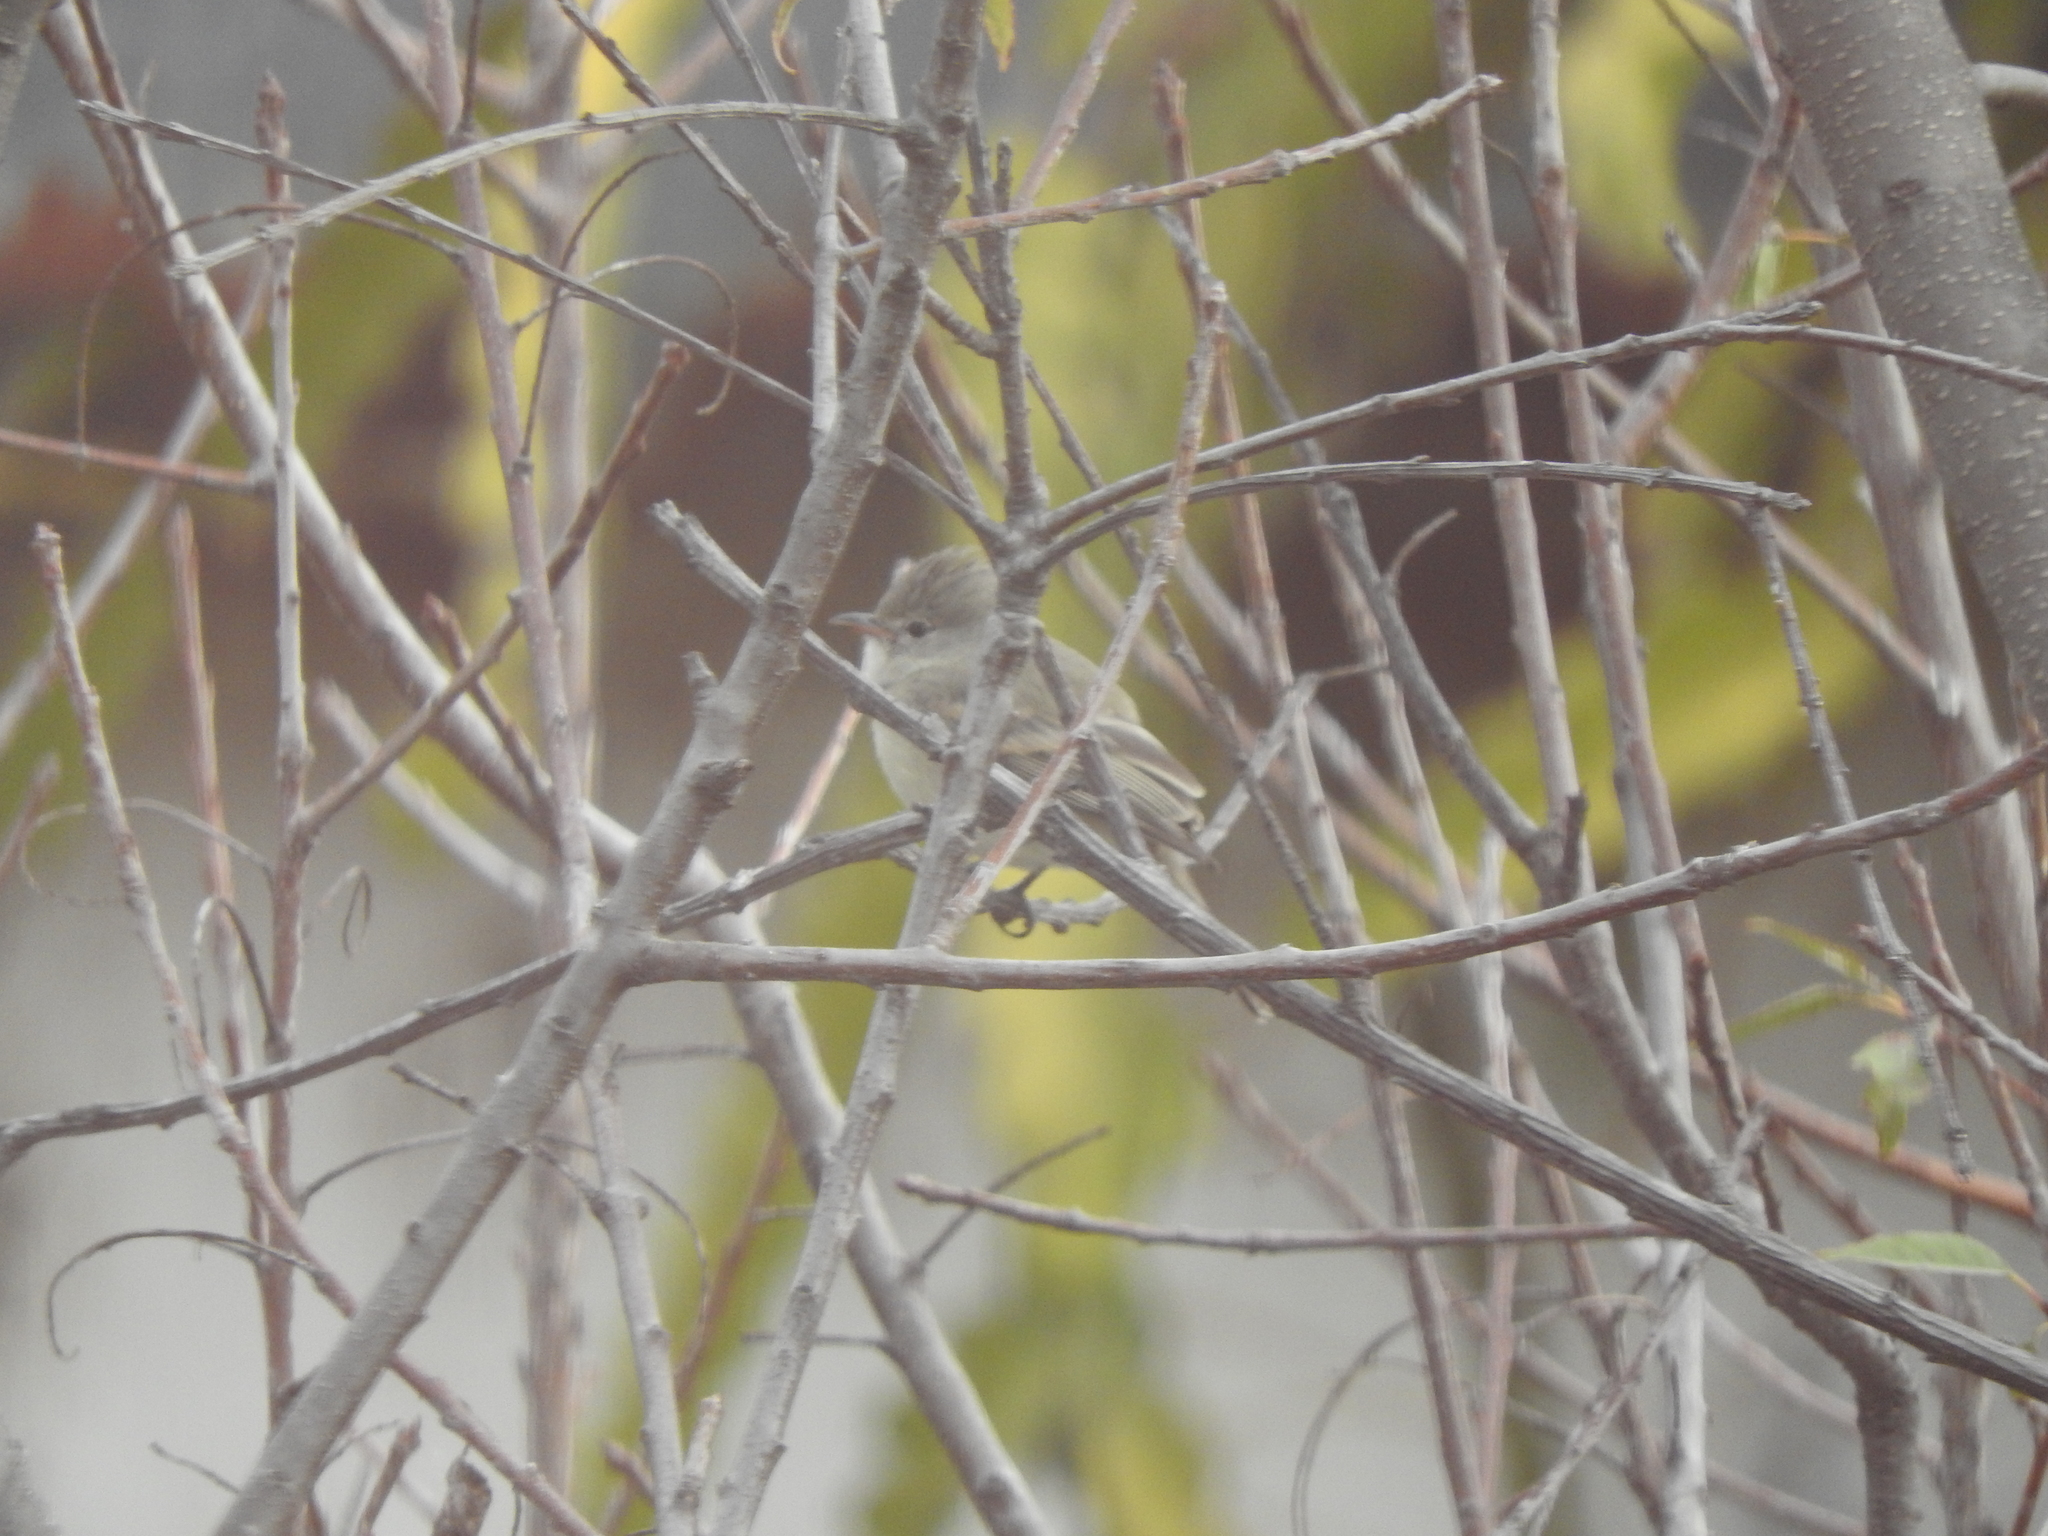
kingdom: Animalia
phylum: Chordata
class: Aves
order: Passeriformes
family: Tyrannidae
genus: Camptostoma
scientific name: Camptostoma imberbe
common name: Northern beardless-tyrannulet
